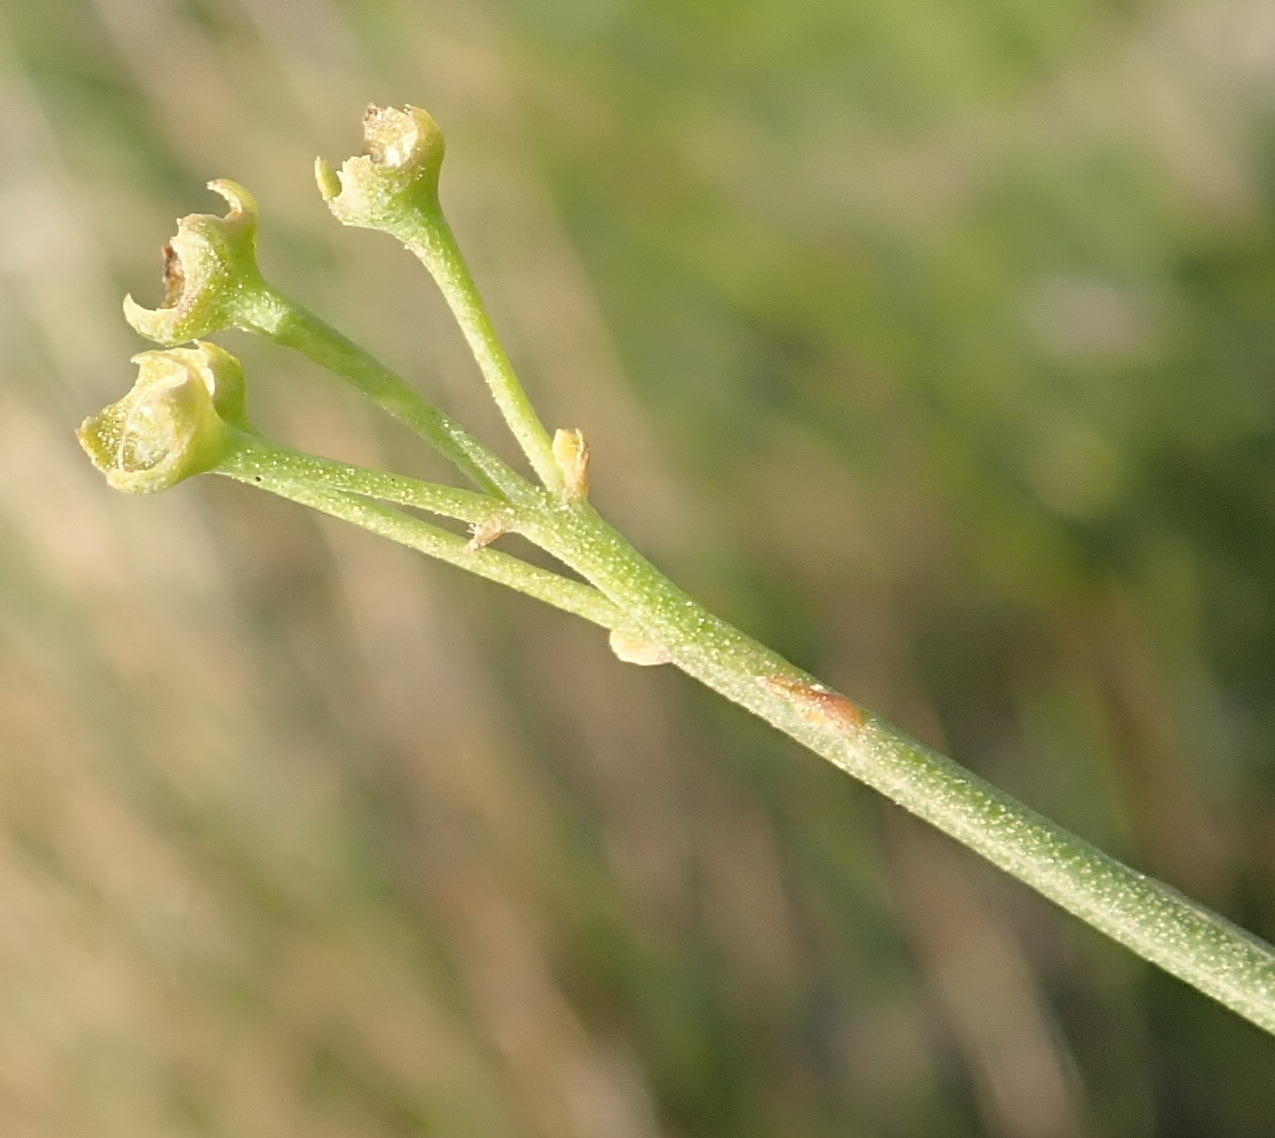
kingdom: Plantae
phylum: Tracheophyta
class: Magnoliopsida
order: Solanales
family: Montiniaceae
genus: Montinia
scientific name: Montinia caryophyllacea
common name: Wild clove-bush
